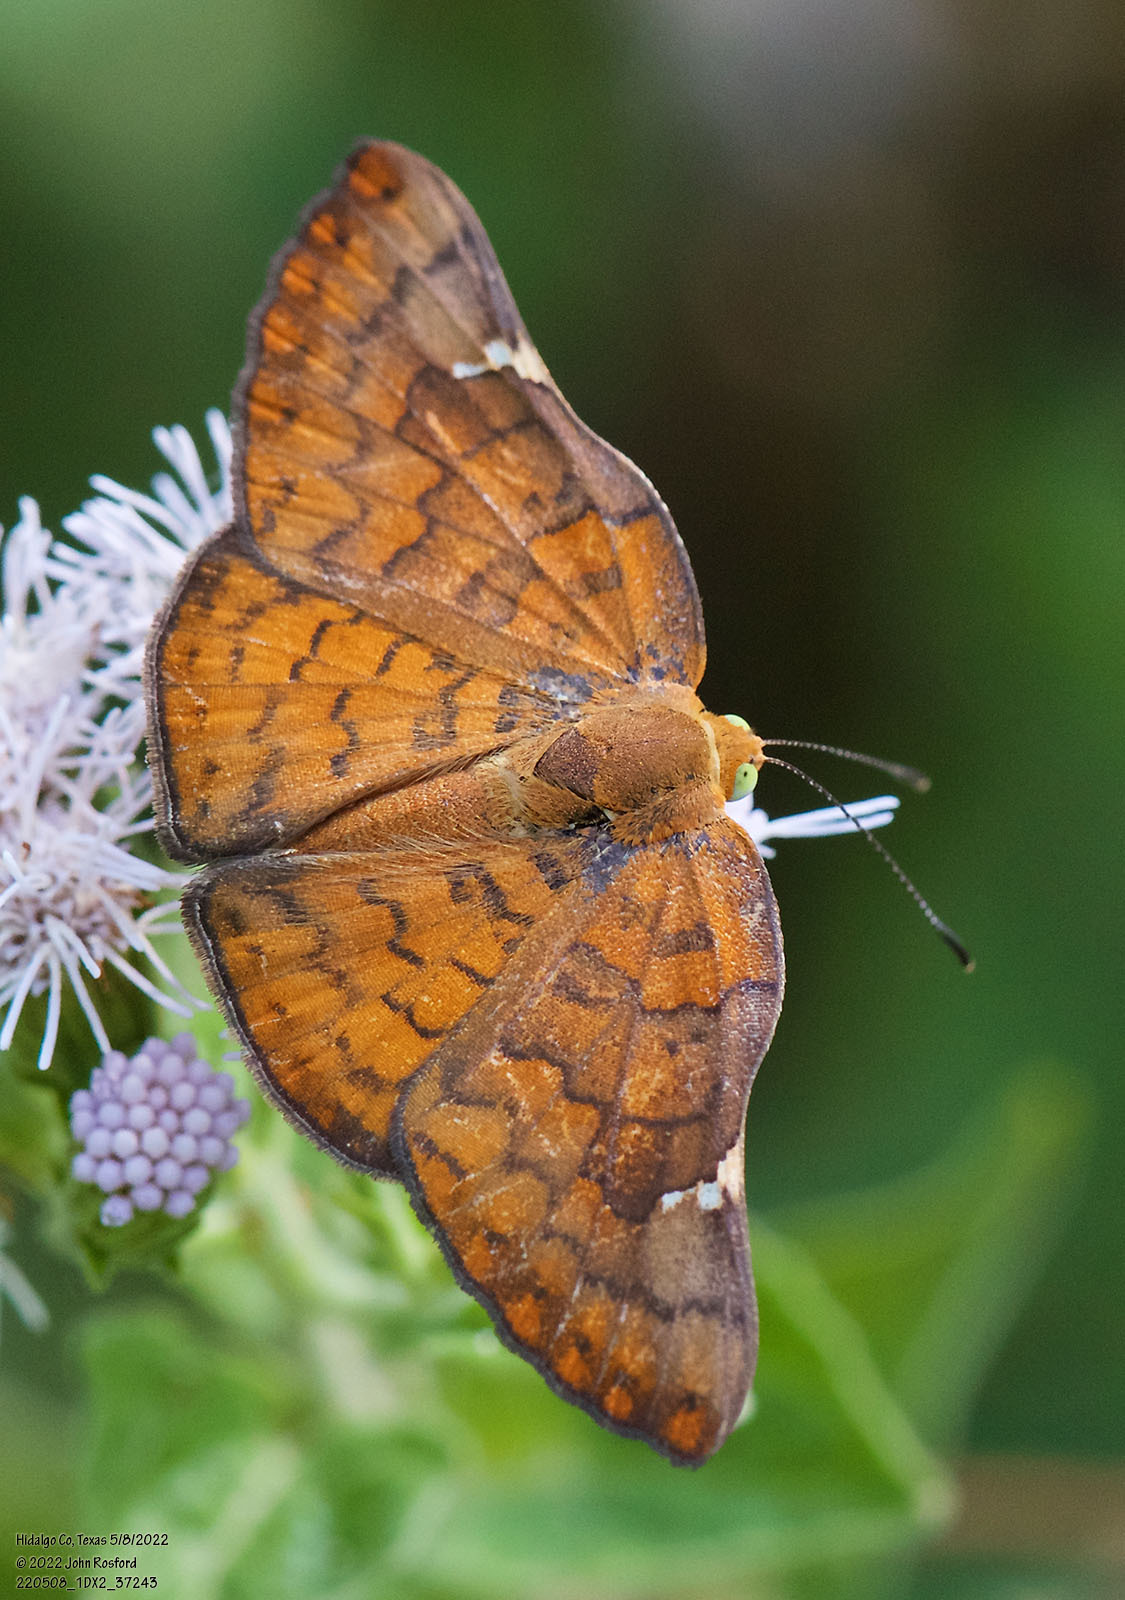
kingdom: Animalia
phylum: Arthropoda
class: Insecta
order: Lepidoptera
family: Riodinidae
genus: Curvie
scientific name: Curvie emesia
